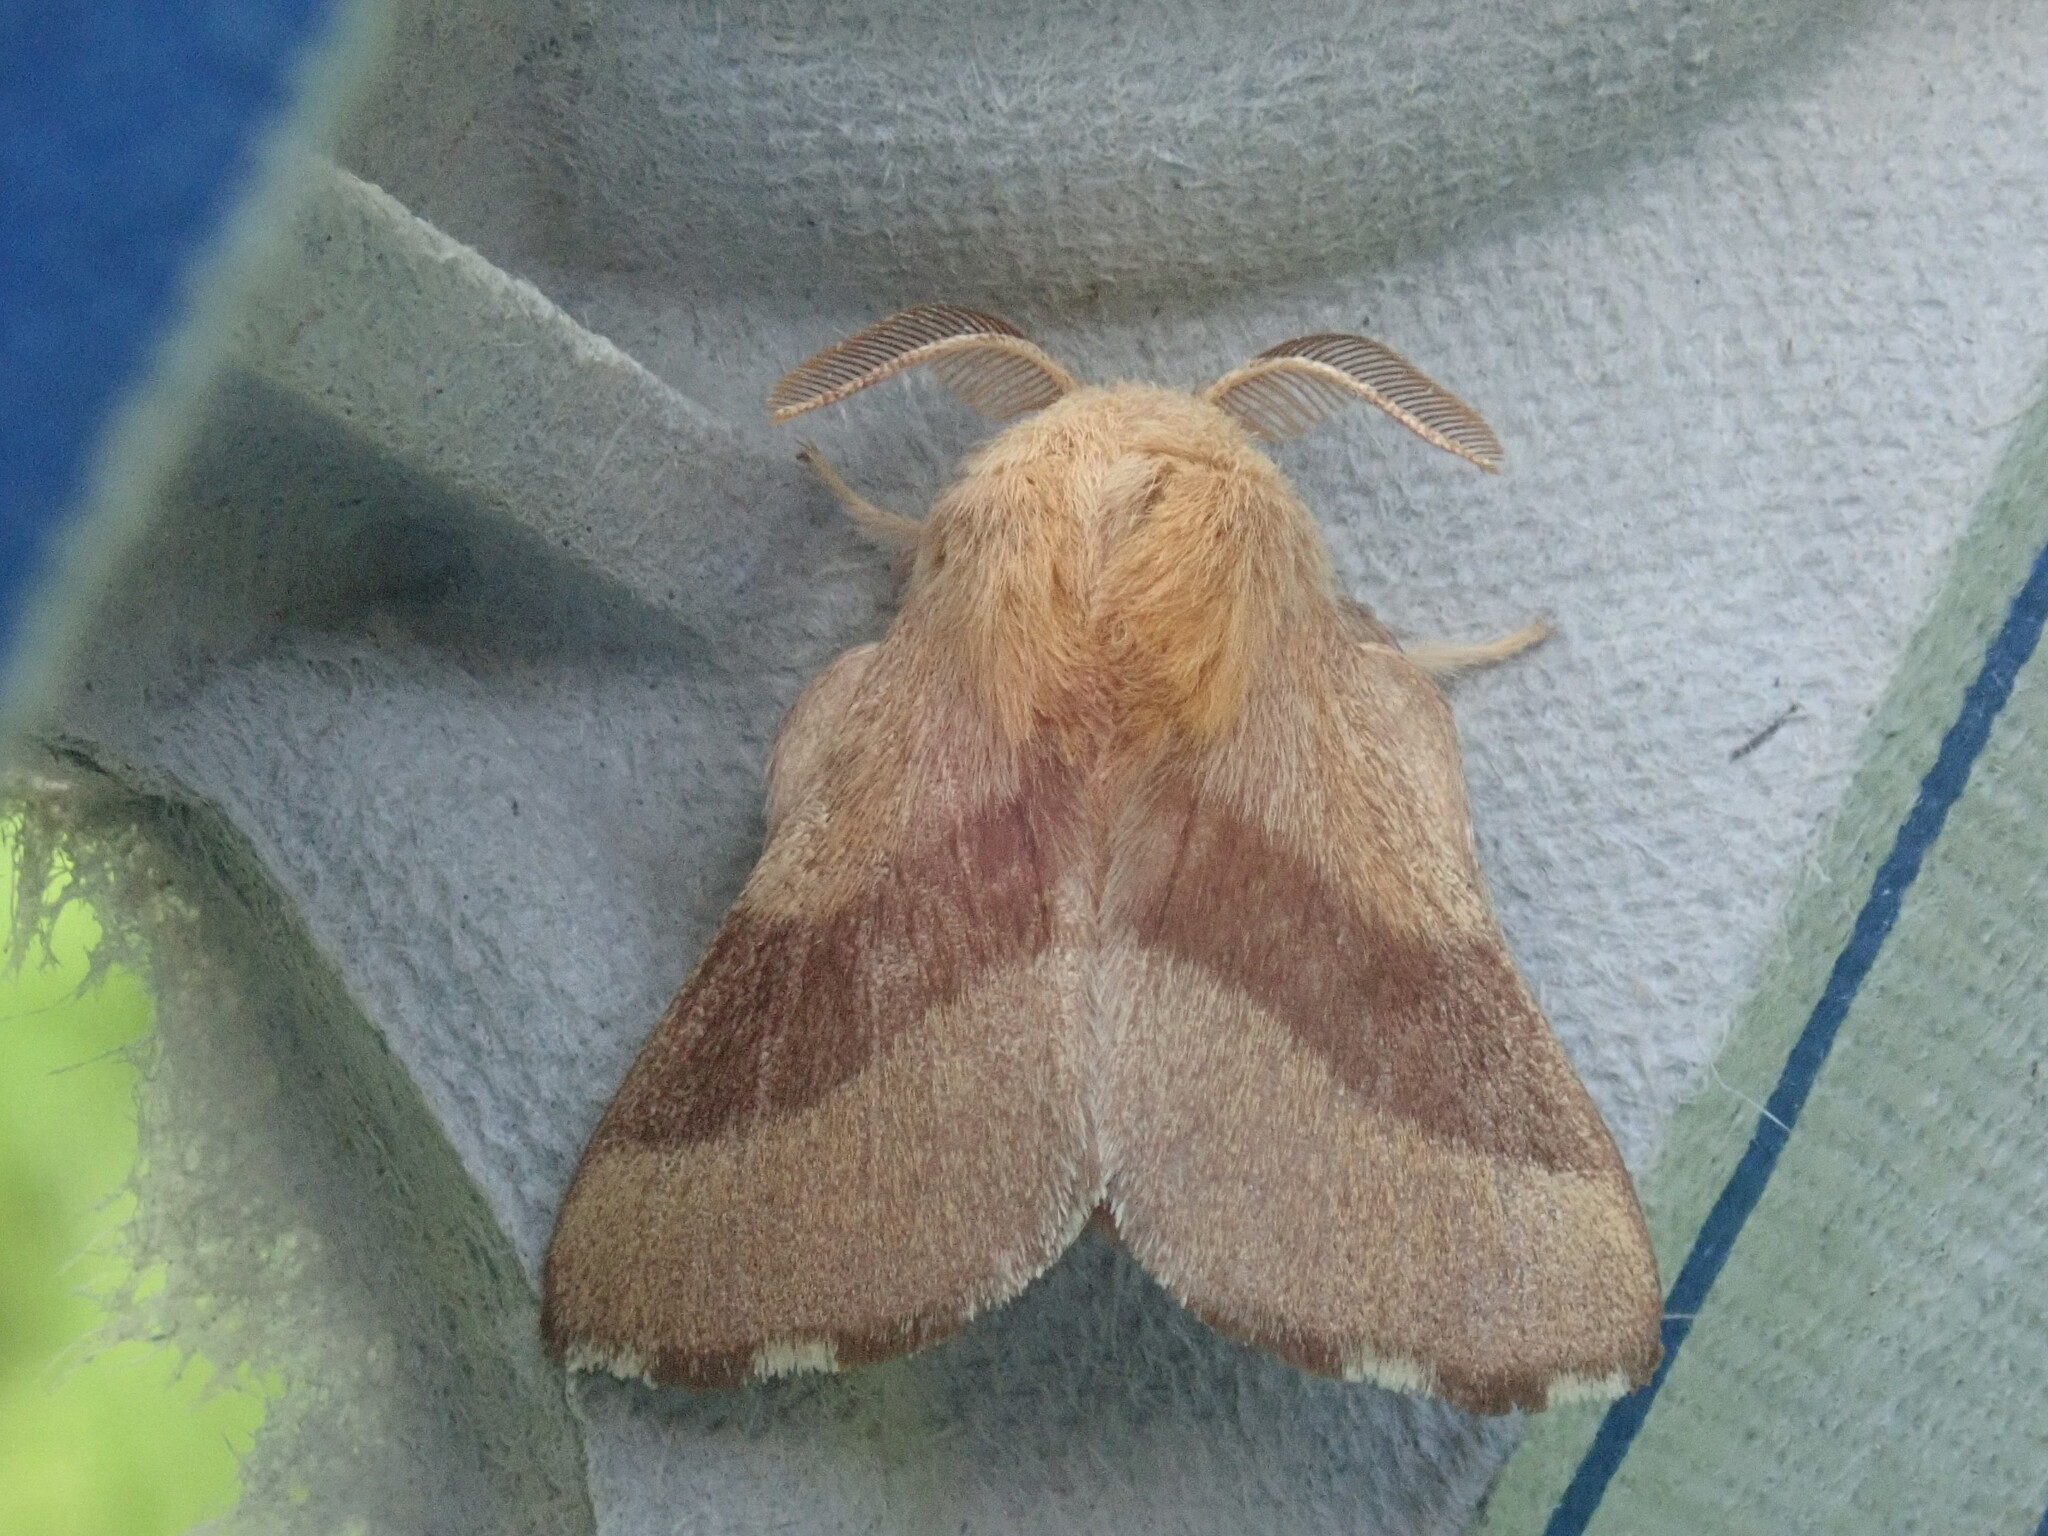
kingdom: Animalia
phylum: Arthropoda
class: Insecta
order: Lepidoptera
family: Lasiocampidae
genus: Malacosoma
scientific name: Malacosoma disstria
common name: Forest tent caterpillar
